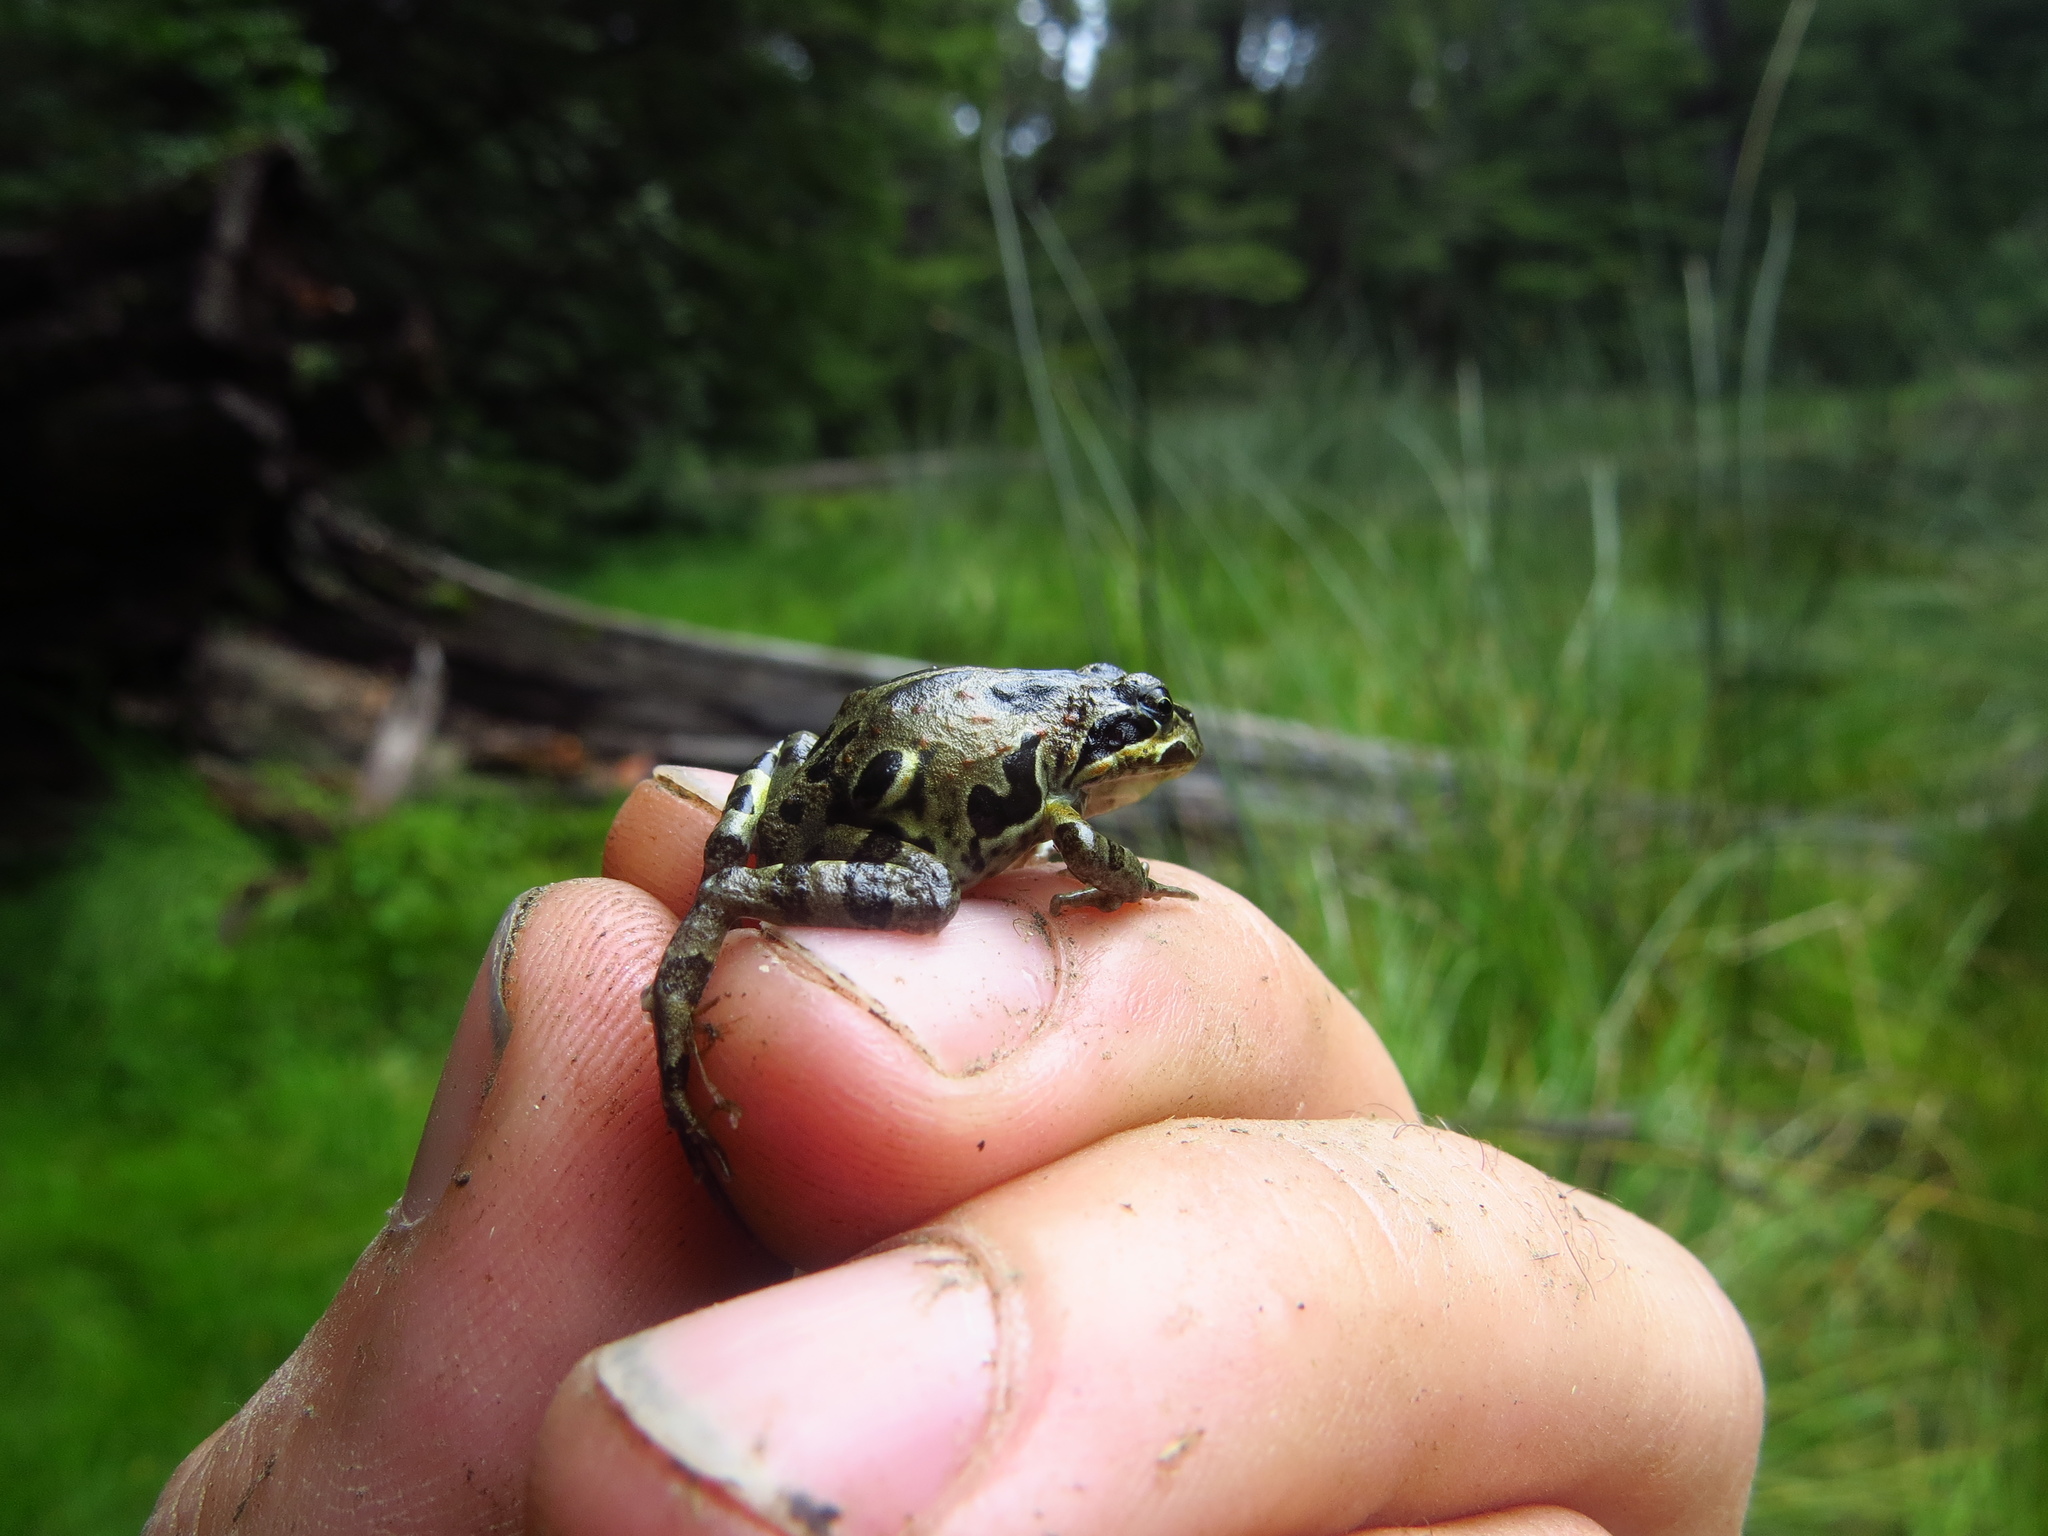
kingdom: Animalia
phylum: Chordata
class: Amphibia
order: Anura
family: Leptodactylidae
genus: Pleurodema
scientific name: Pleurodema thaul
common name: Chile four-eyed frog
